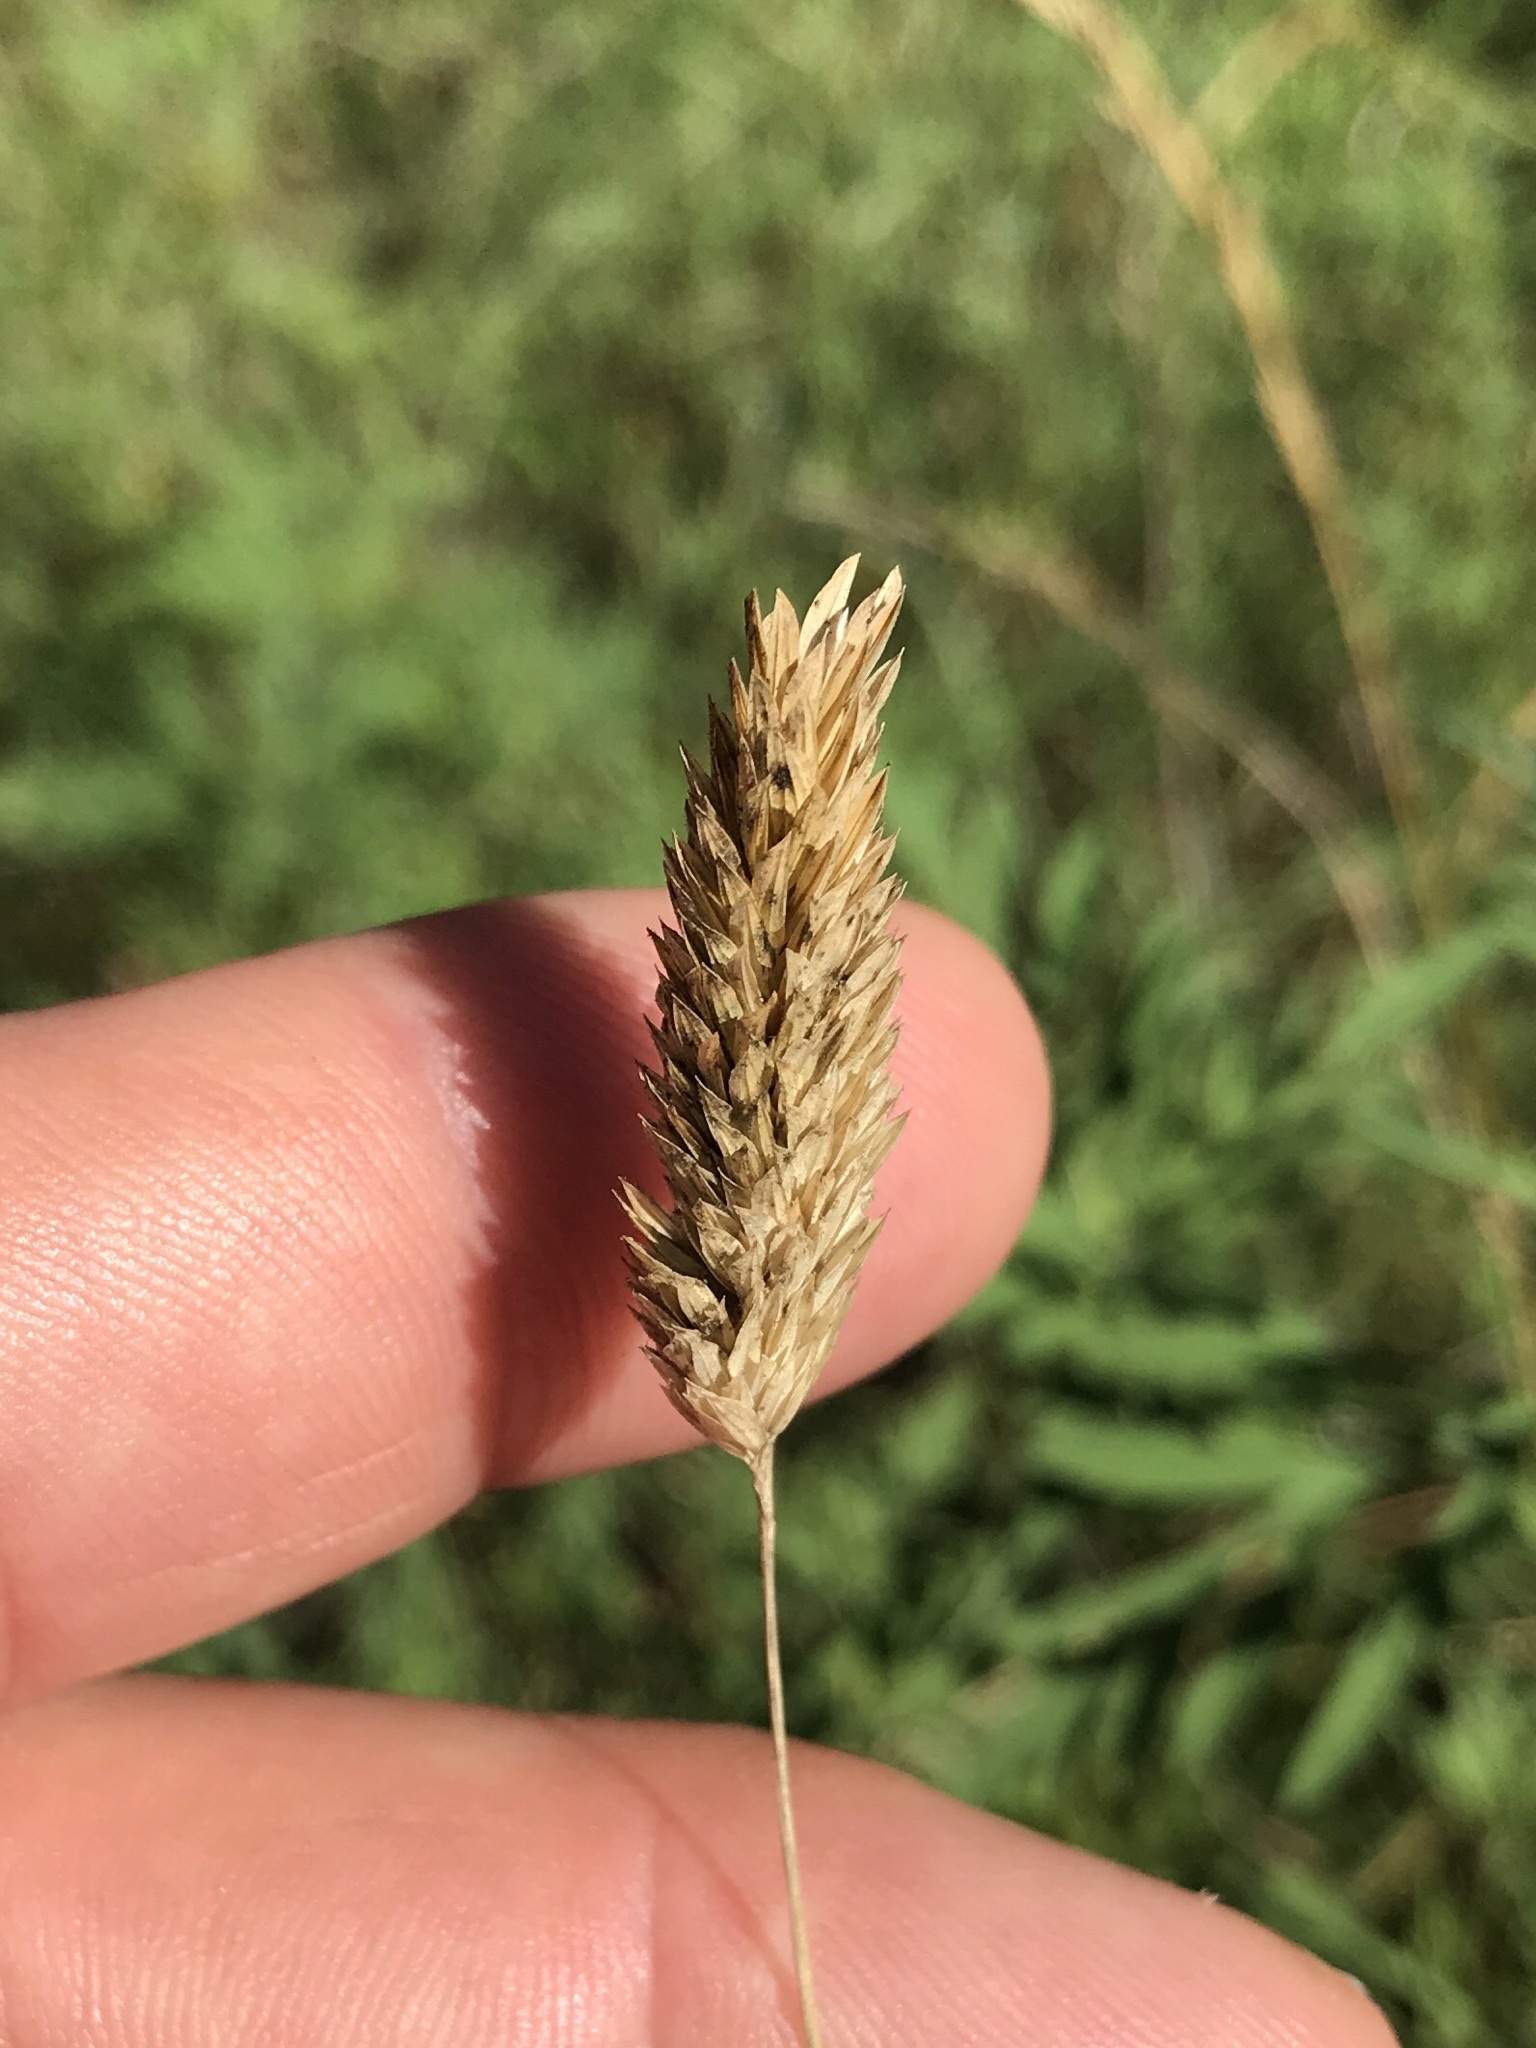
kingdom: Plantae
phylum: Tracheophyta
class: Liliopsida
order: Poales
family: Poaceae
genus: Phalaris
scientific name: Phalaris caroliniana
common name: May grass
